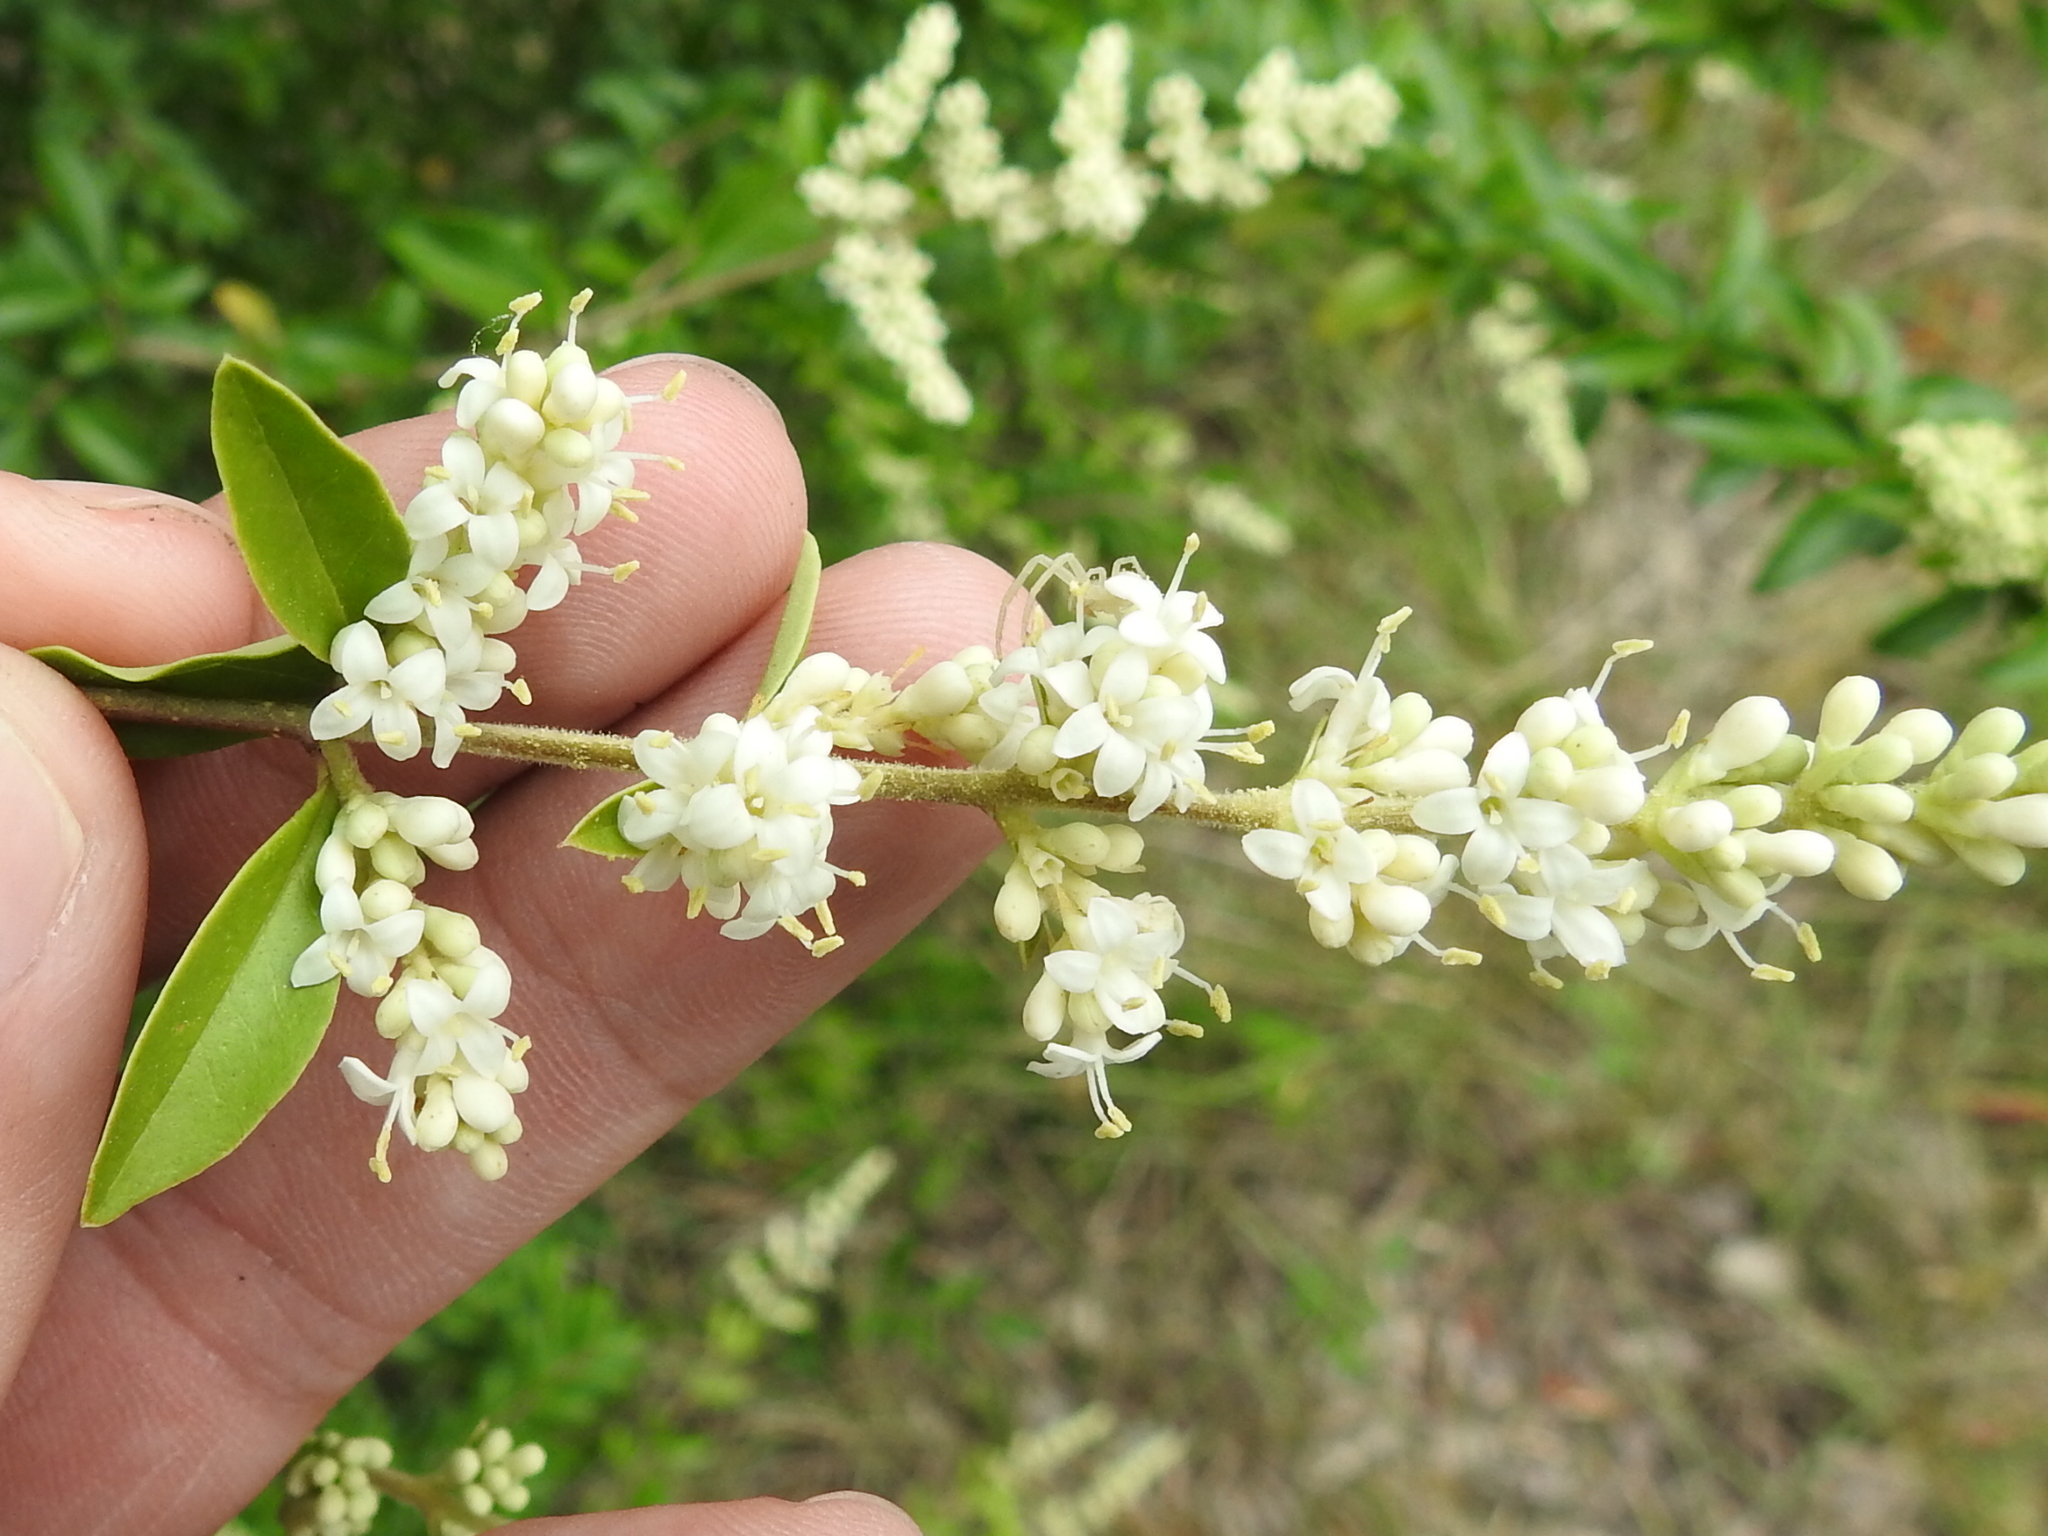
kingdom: Plantae
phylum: Tracheophyta
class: Magnoliopsida
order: Lamiales
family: Oleaceae
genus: Ligustrum
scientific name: Ligustrum quihoui
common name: Waxyleaf privet
